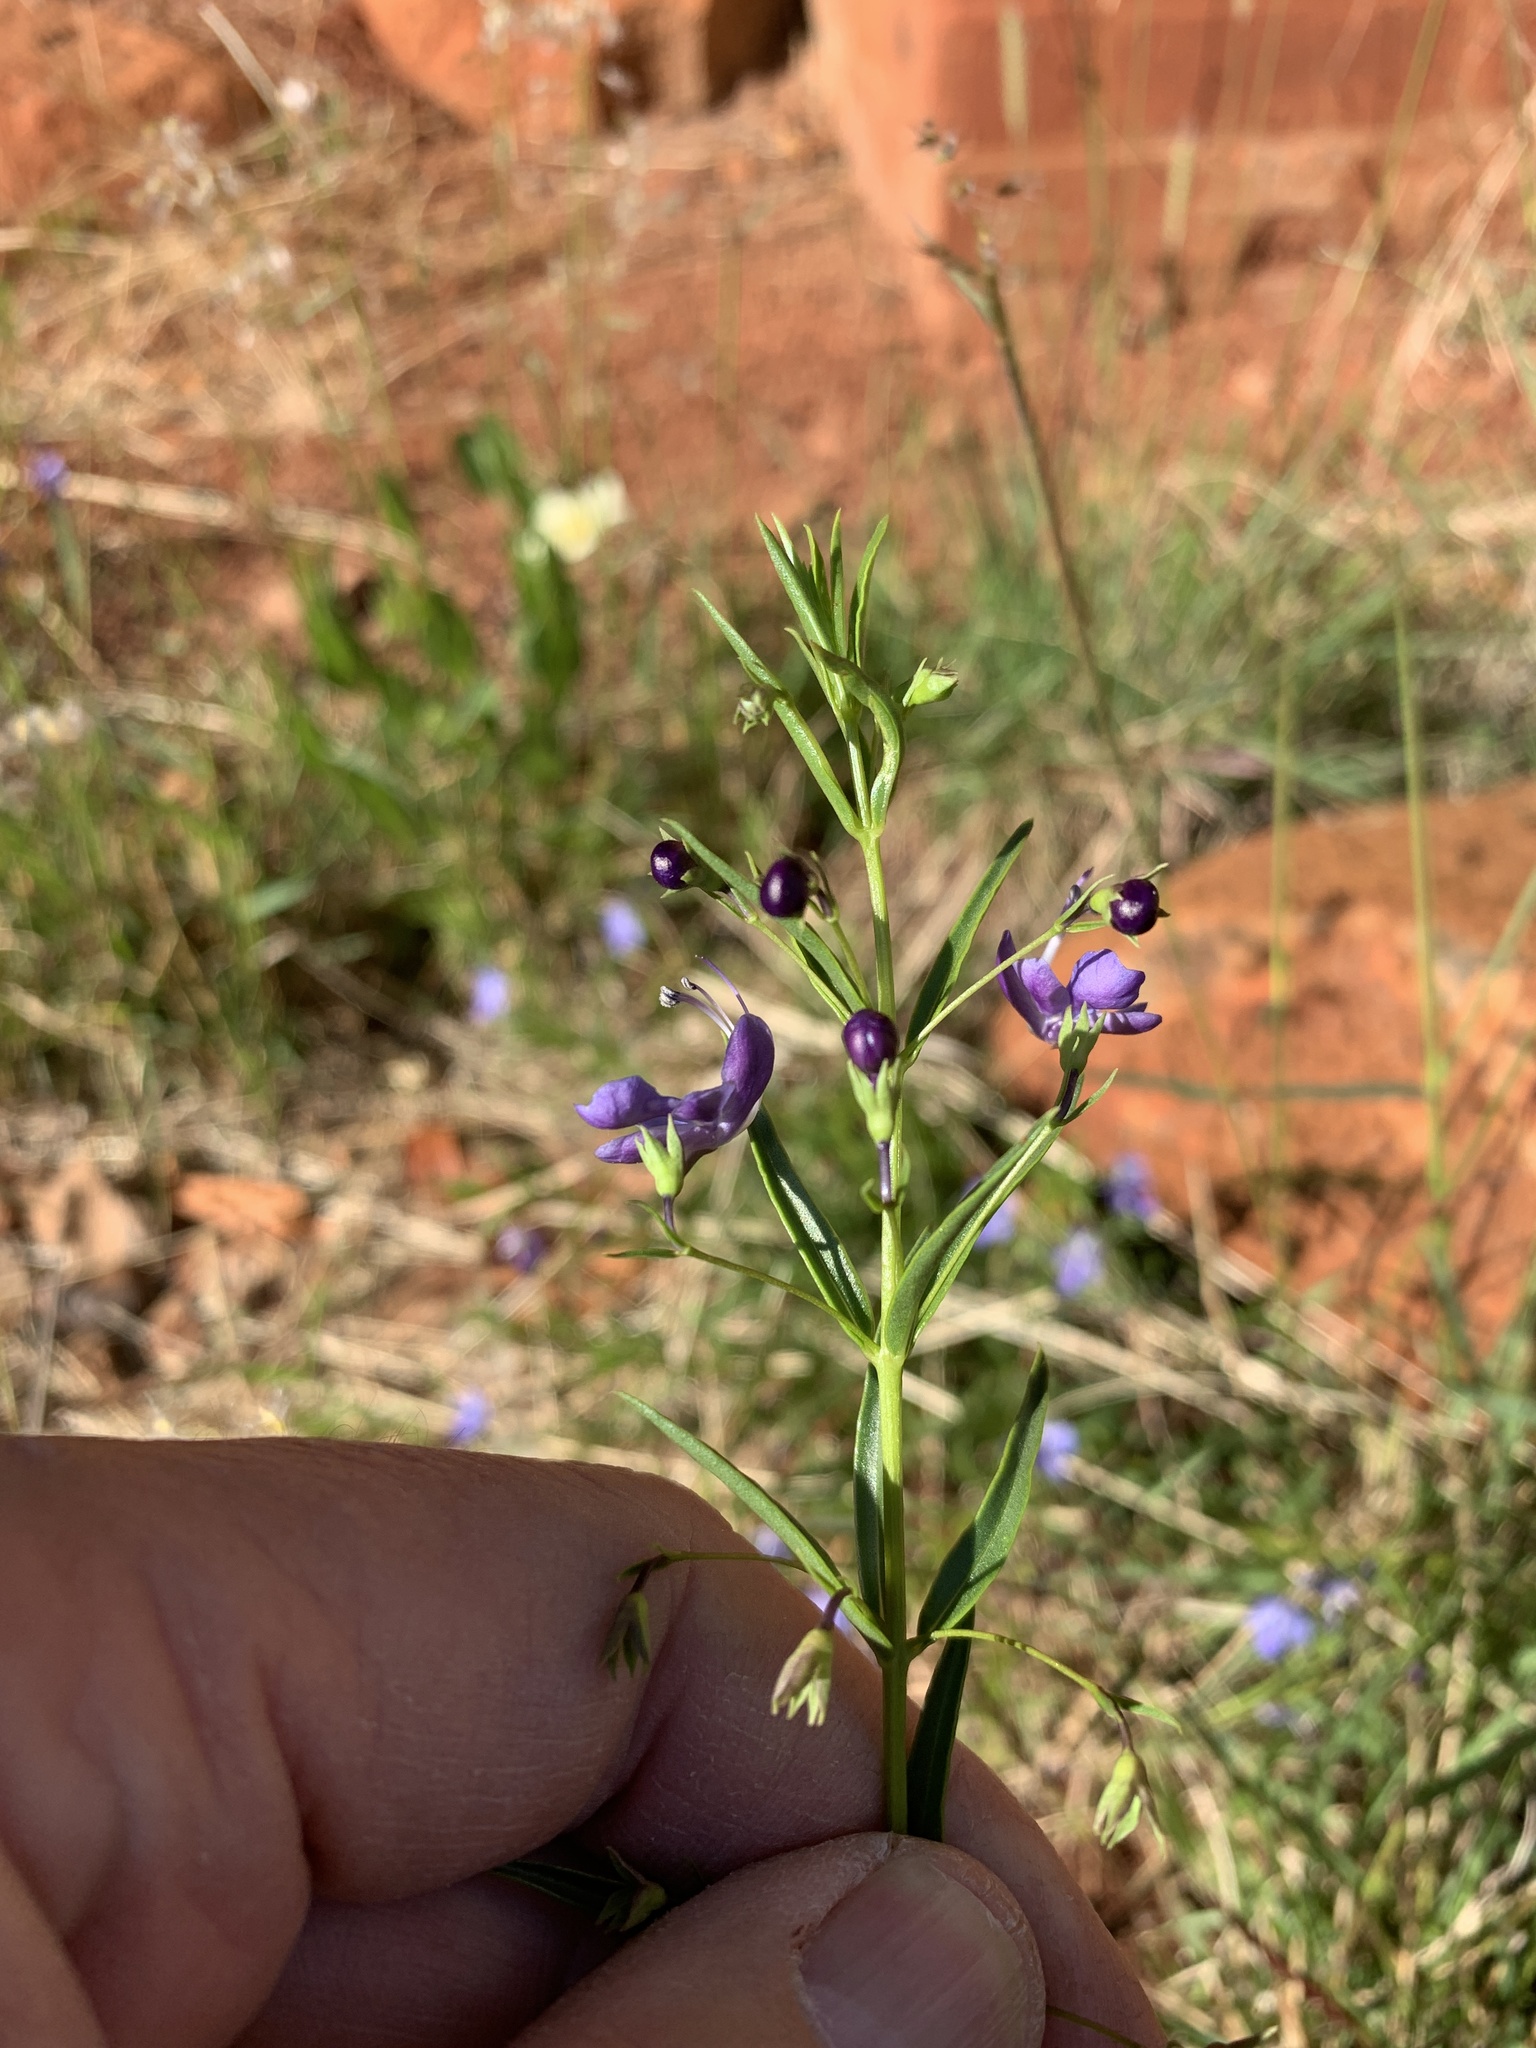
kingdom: Plantae
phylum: Tracheophyta
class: Magnoliopsida
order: Lamiales
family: Lamiaceae
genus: Rotheca
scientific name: Rotheca hirsuta
